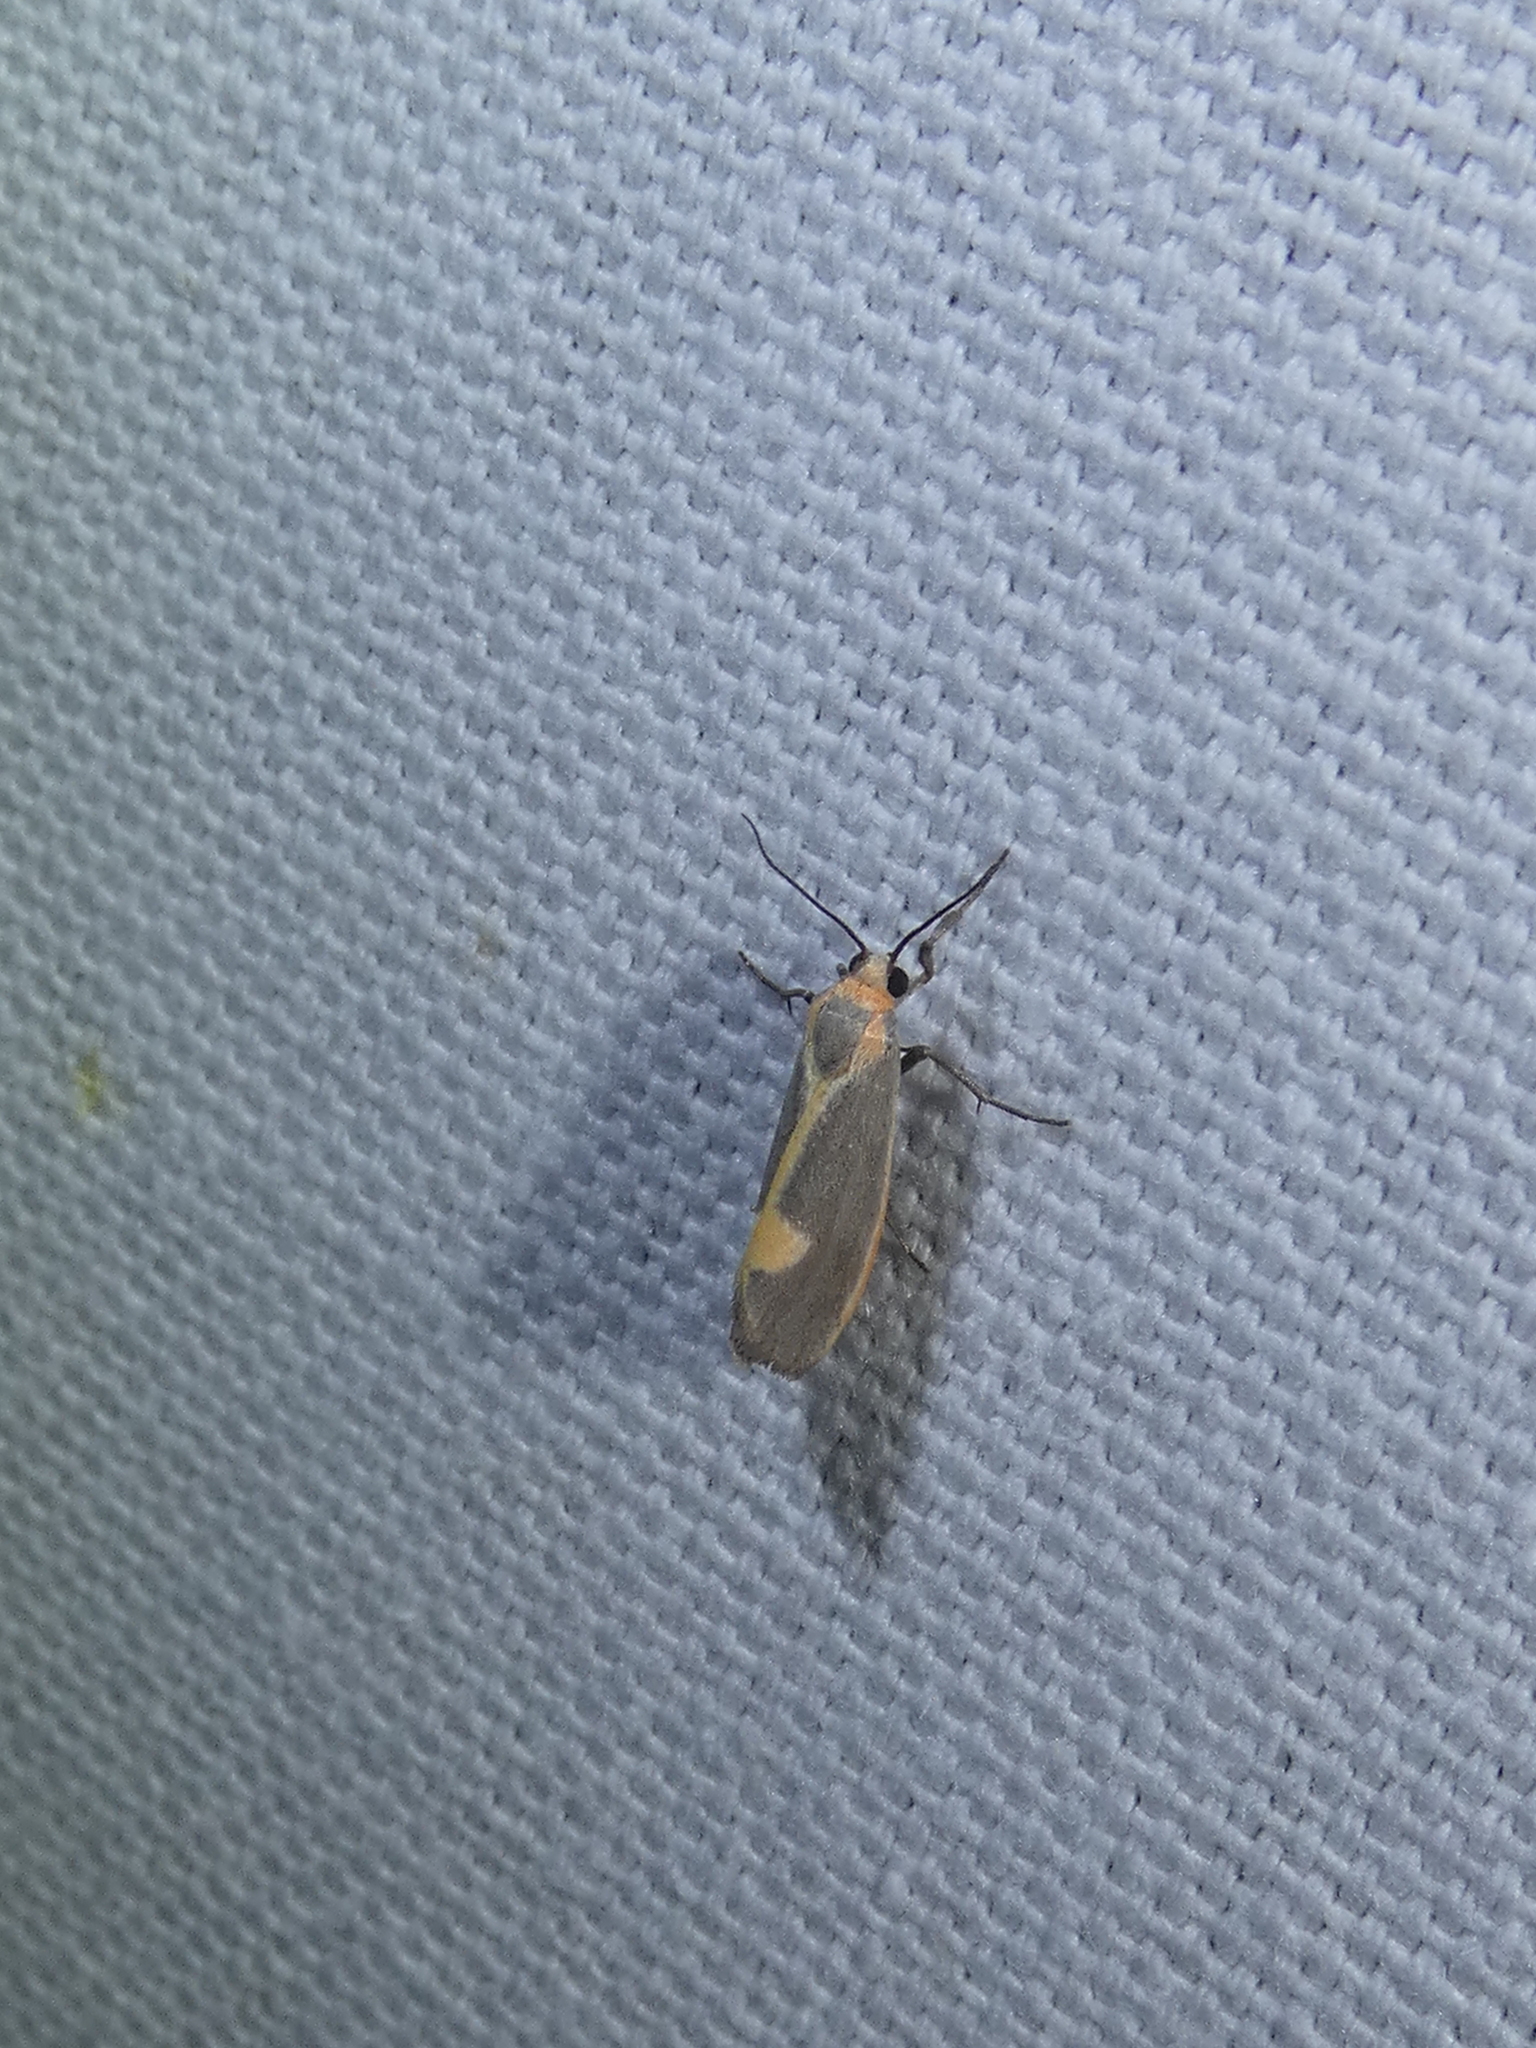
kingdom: Animalia
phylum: Arthropoda
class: Insecta
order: Lepidoptera
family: Erebidae
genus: Cisthene
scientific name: Cisthene plumbea
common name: Lead colored lichen moth
